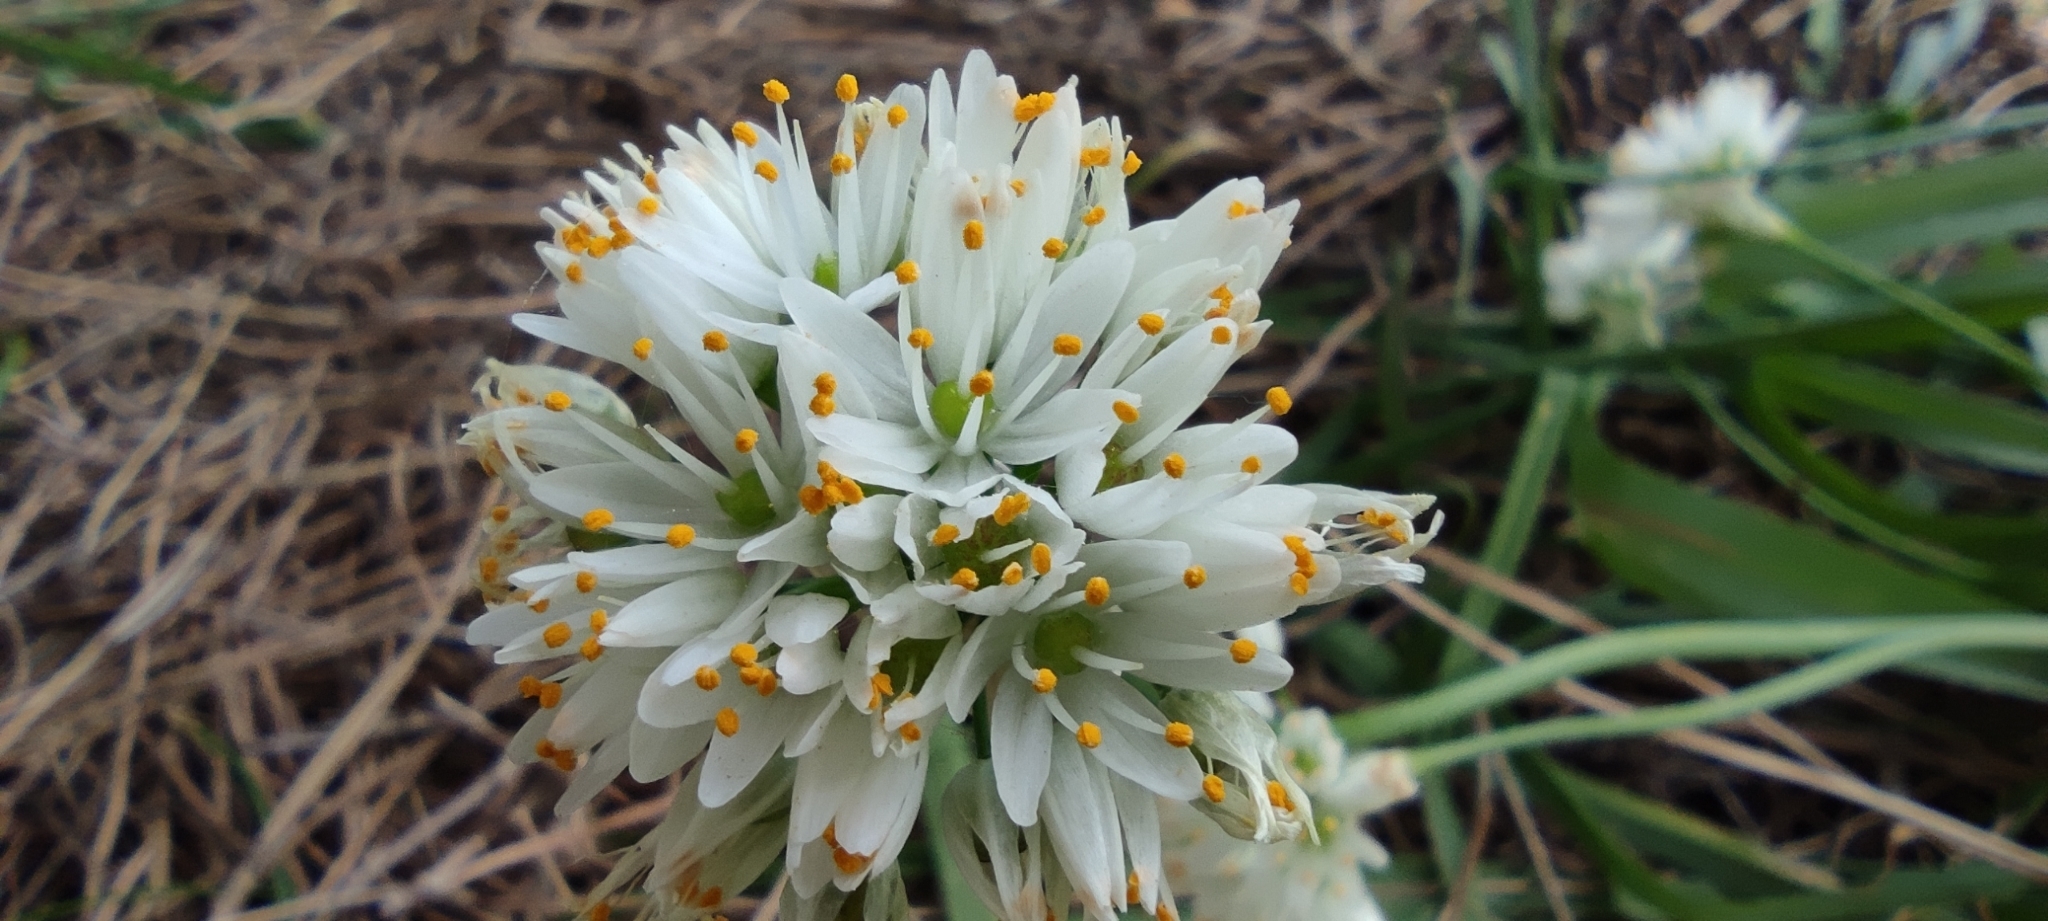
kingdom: Plantae
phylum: Tracheophyta
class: Liliopsida
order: Asparagales
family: Amaryllidaceae
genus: Allium
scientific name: Allium subvillosum
